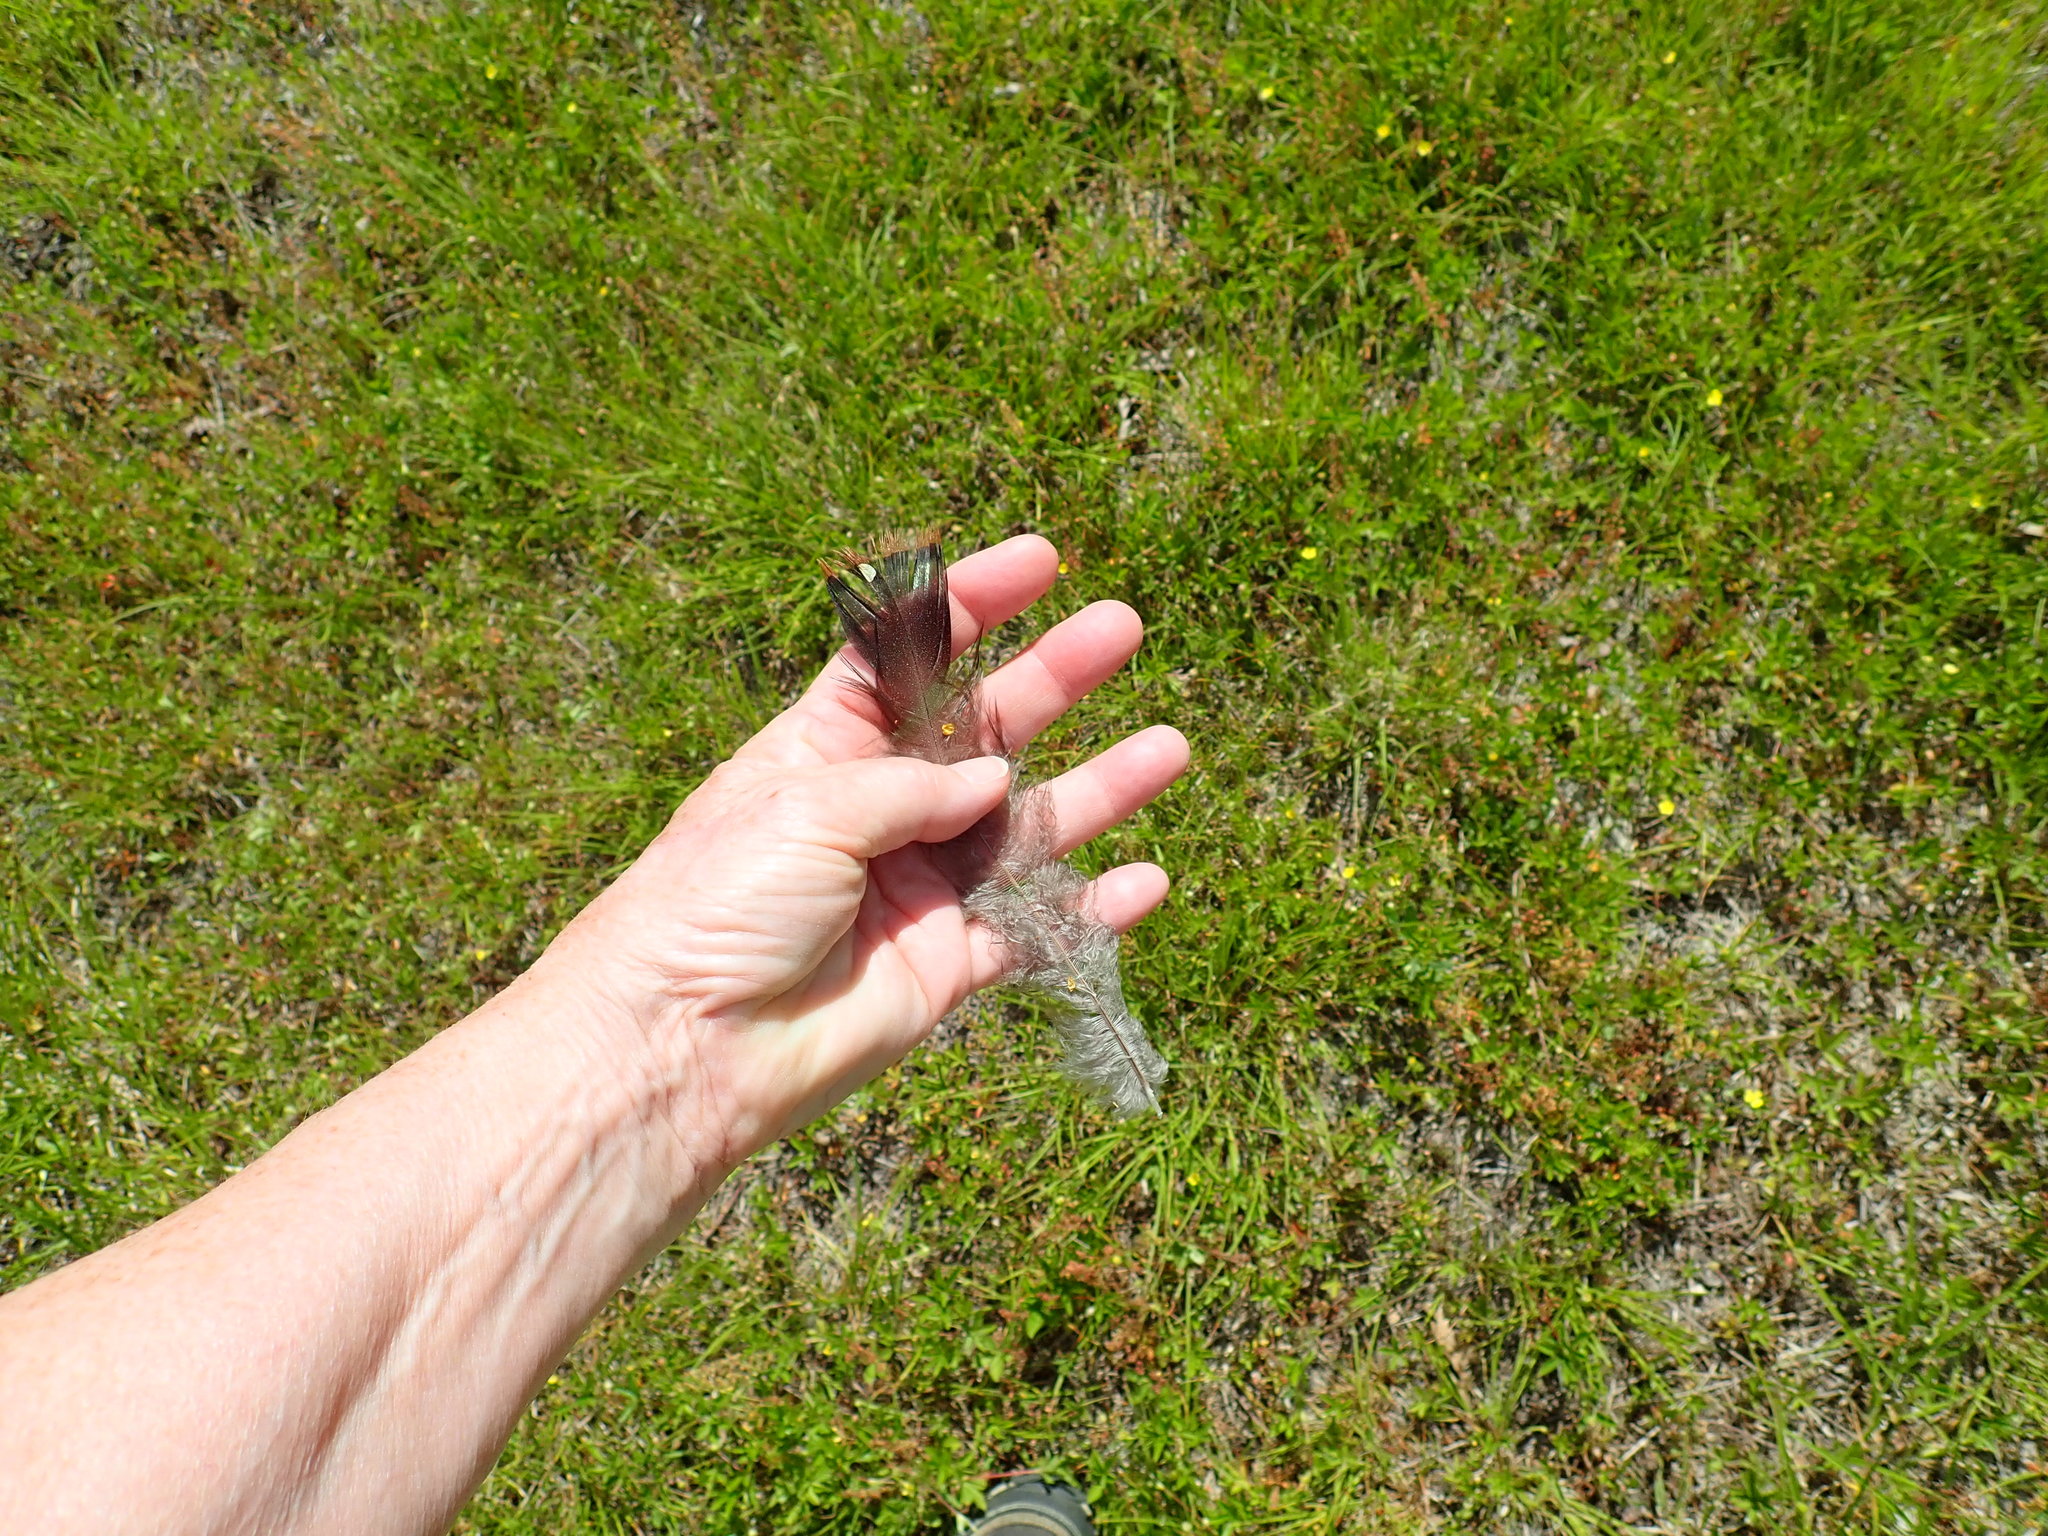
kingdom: Animalia
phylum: Chordata
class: Aves
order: Galliformes
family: Phasianidae
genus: Meleagris
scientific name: Meleagris gallopavo
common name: Wild turkey
